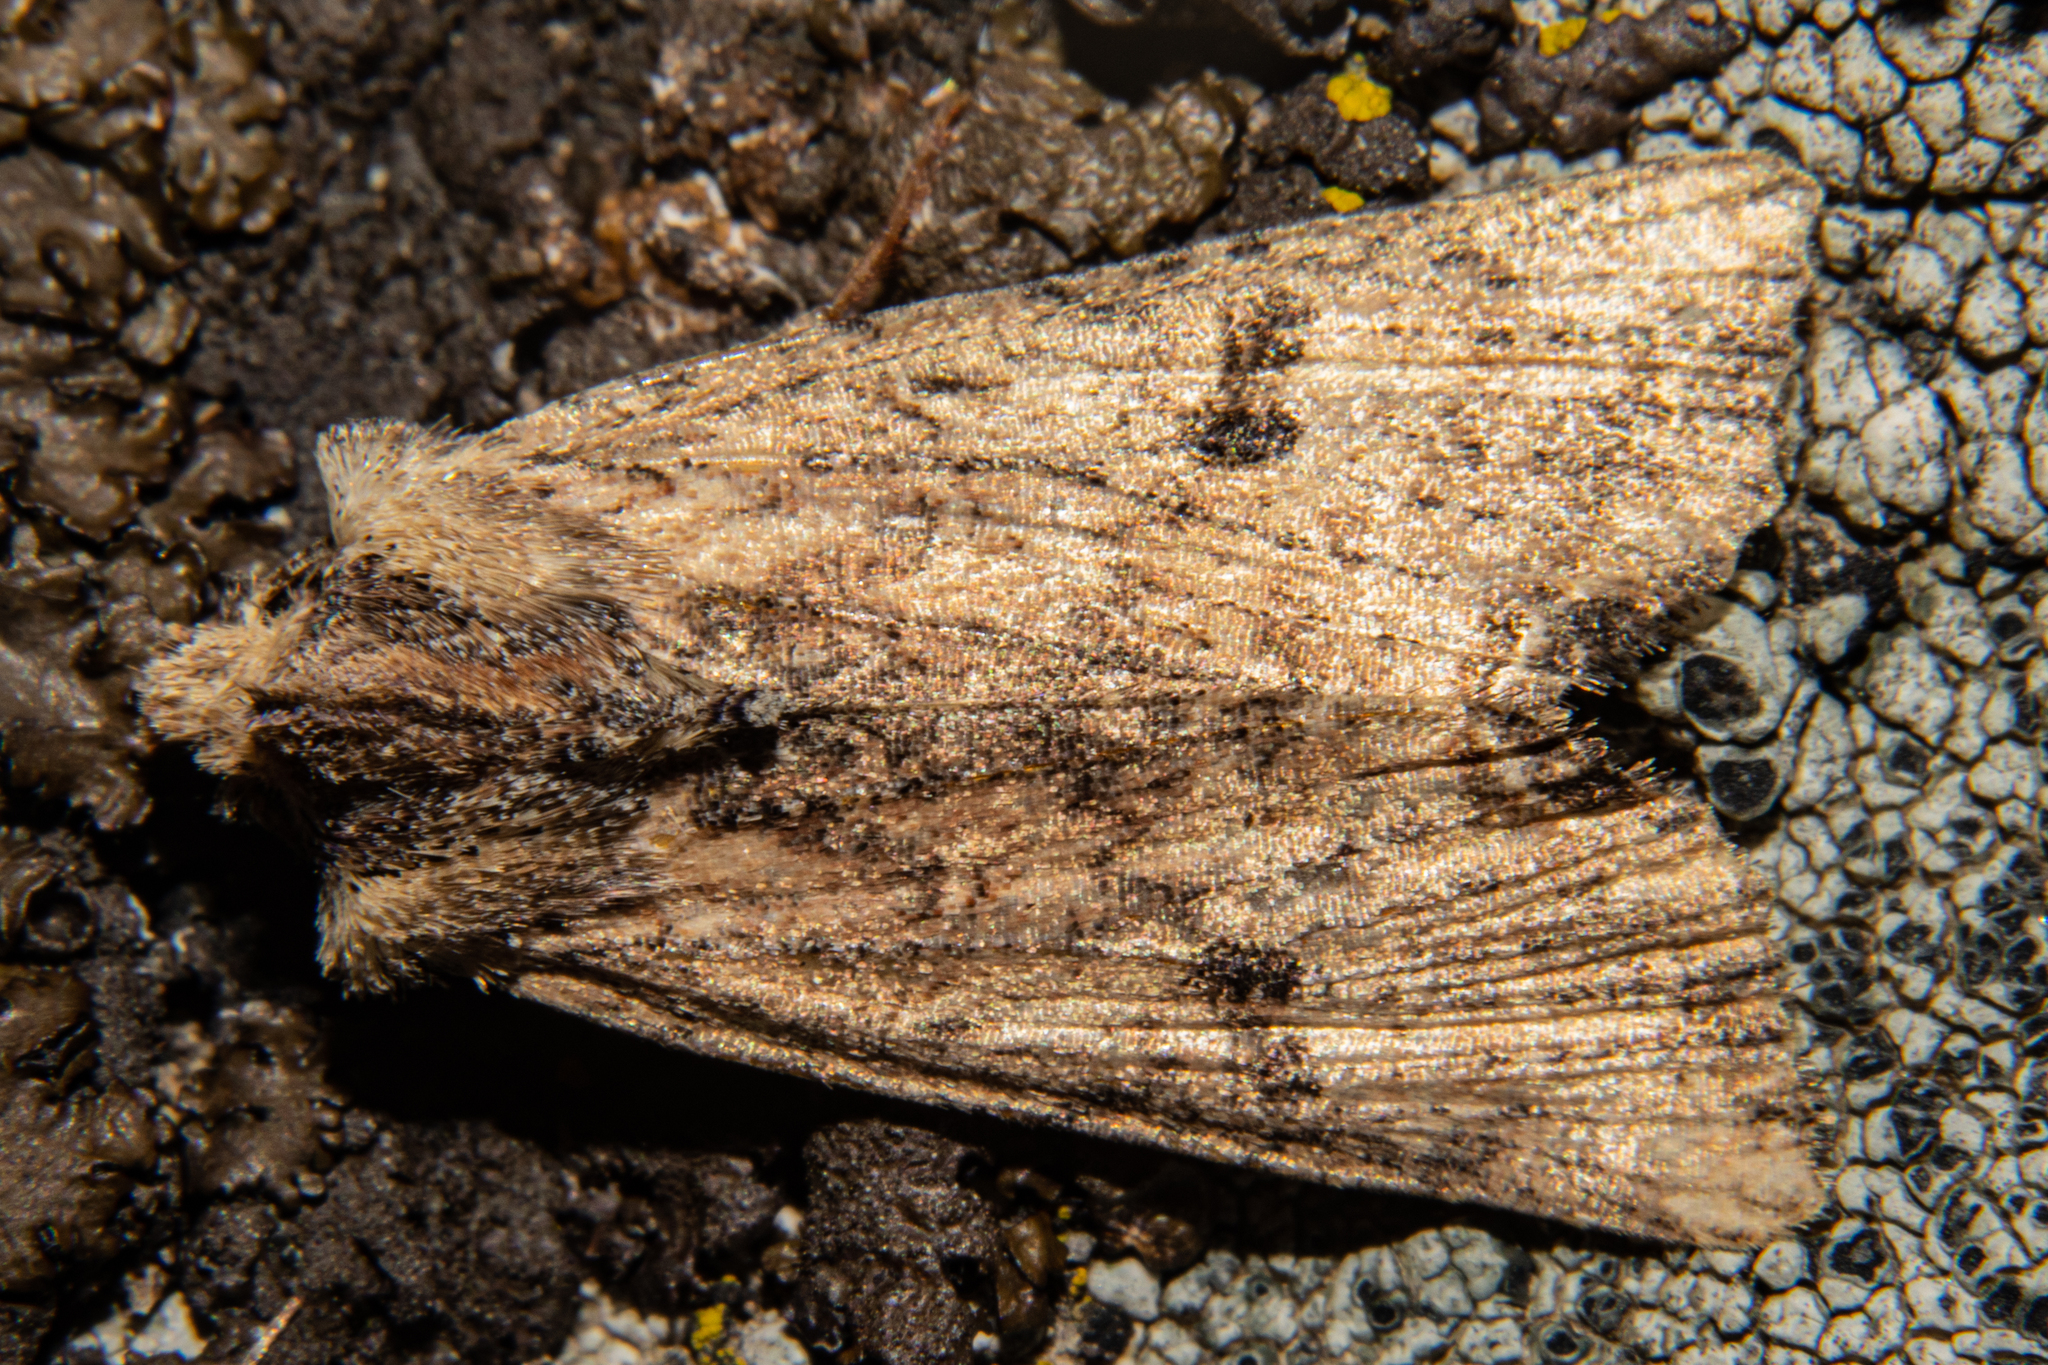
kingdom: Animalia
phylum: Arthropoda
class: Insecta
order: Lepidoptera
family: Noctuidae
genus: Meterana
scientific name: Meterana coeleno
